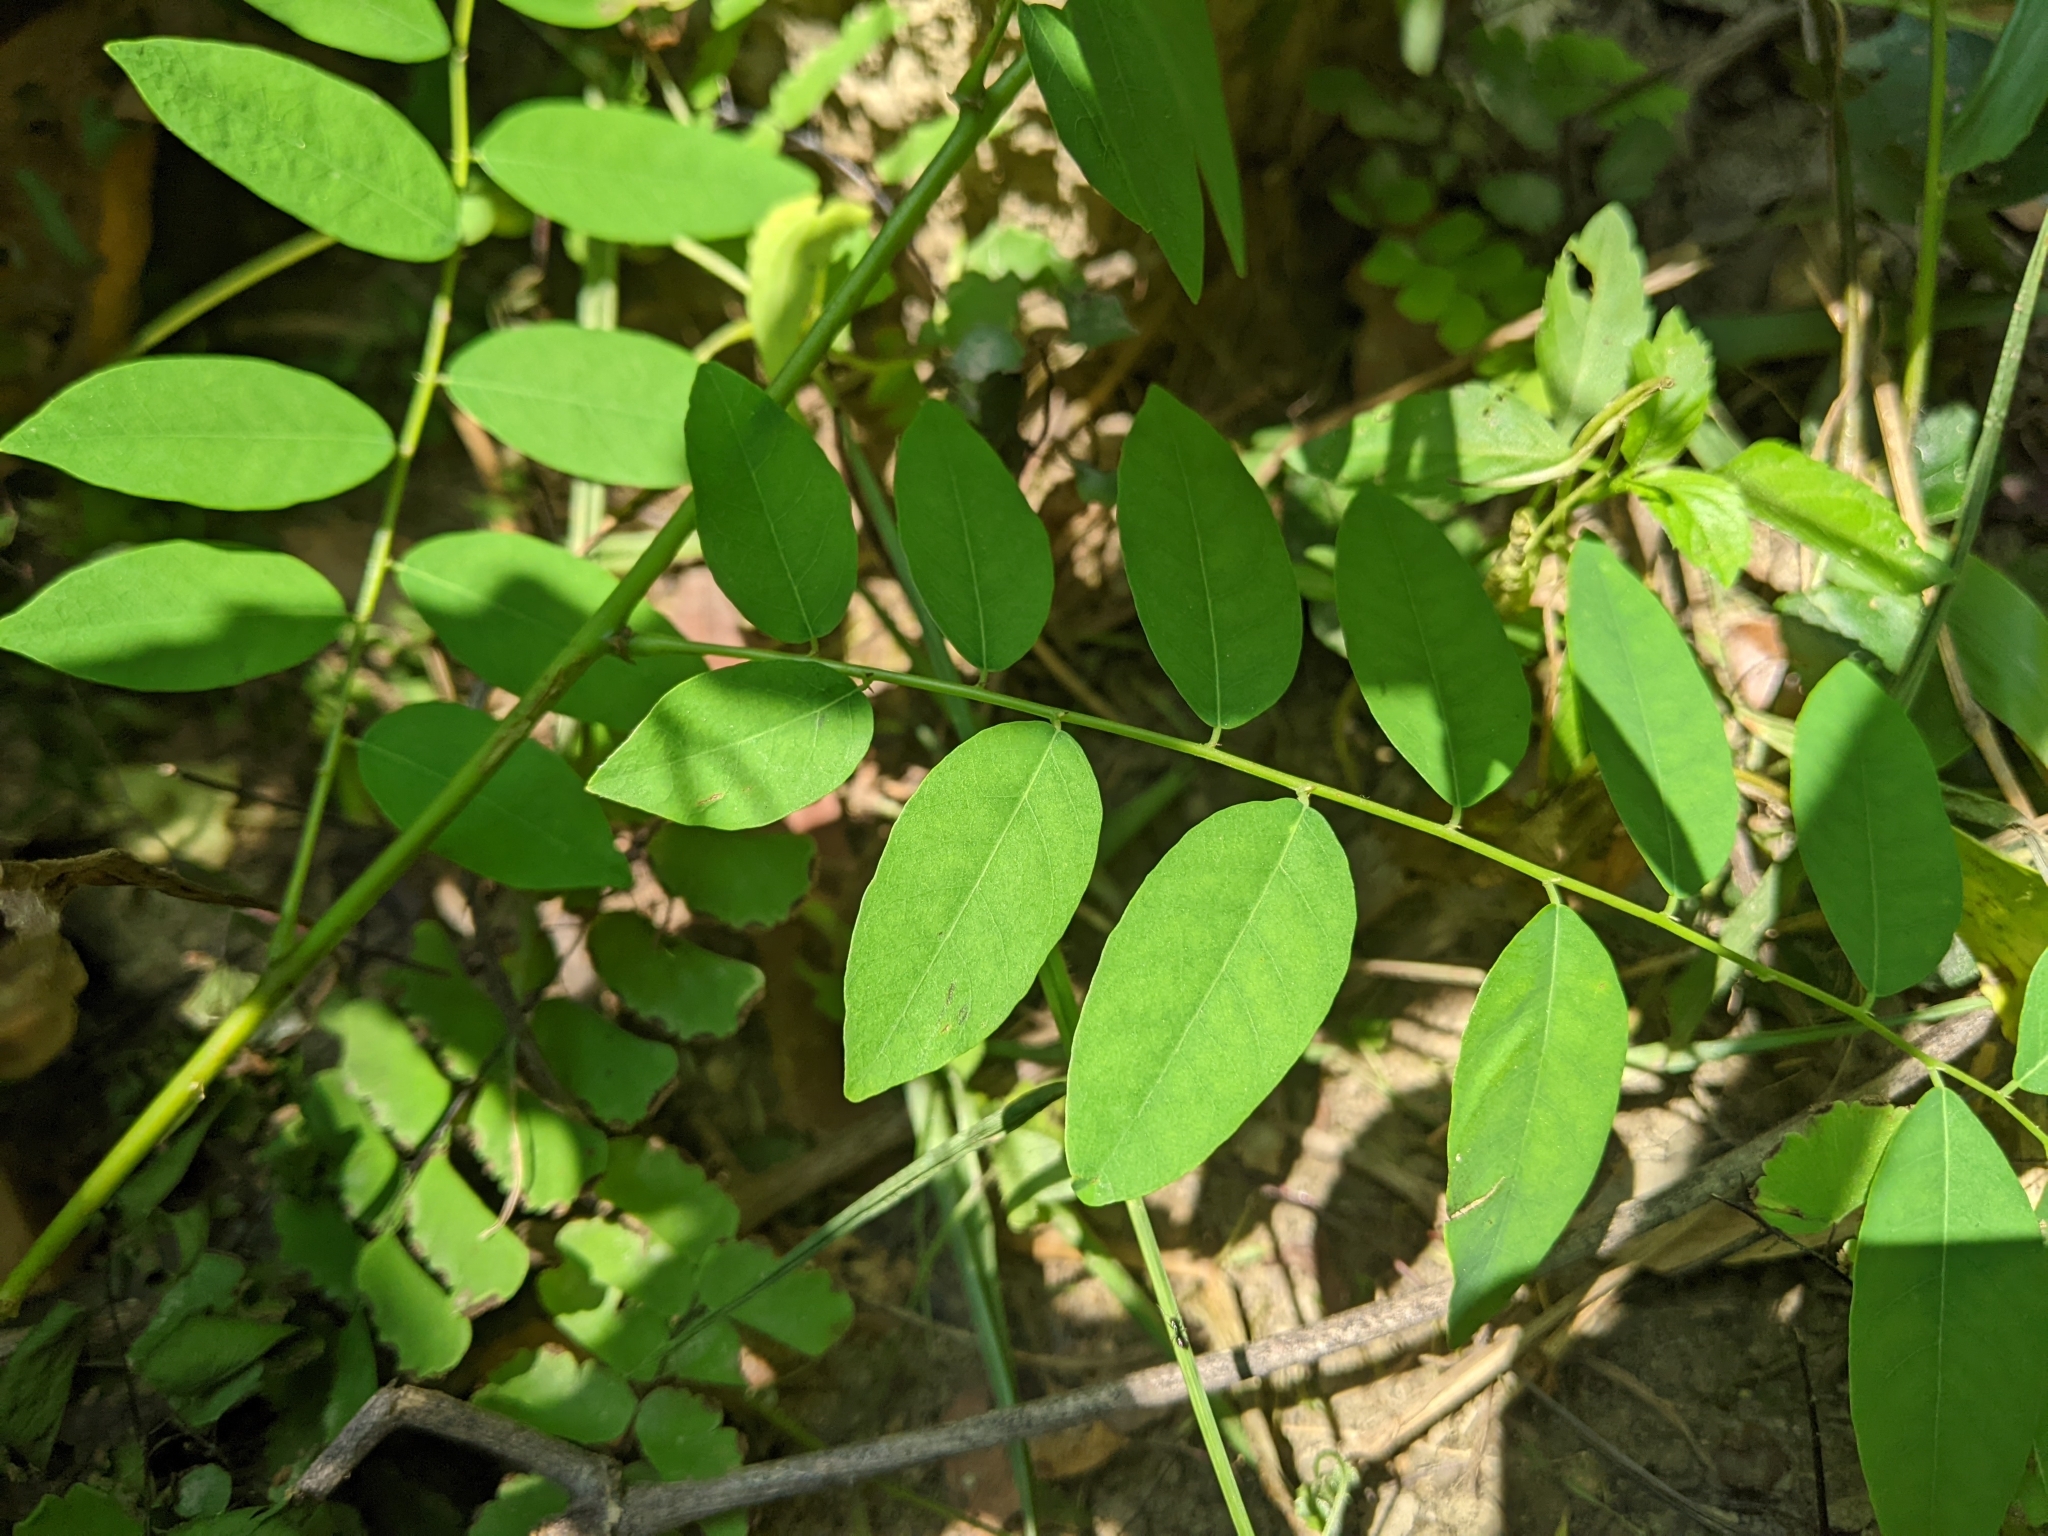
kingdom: Plantae
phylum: Tracheophyta
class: Magnoliopsida
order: Malpighiales
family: Phyllanthaceae
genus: Phyllanthus
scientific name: Phyllanthus reticulatus
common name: Potato bush
